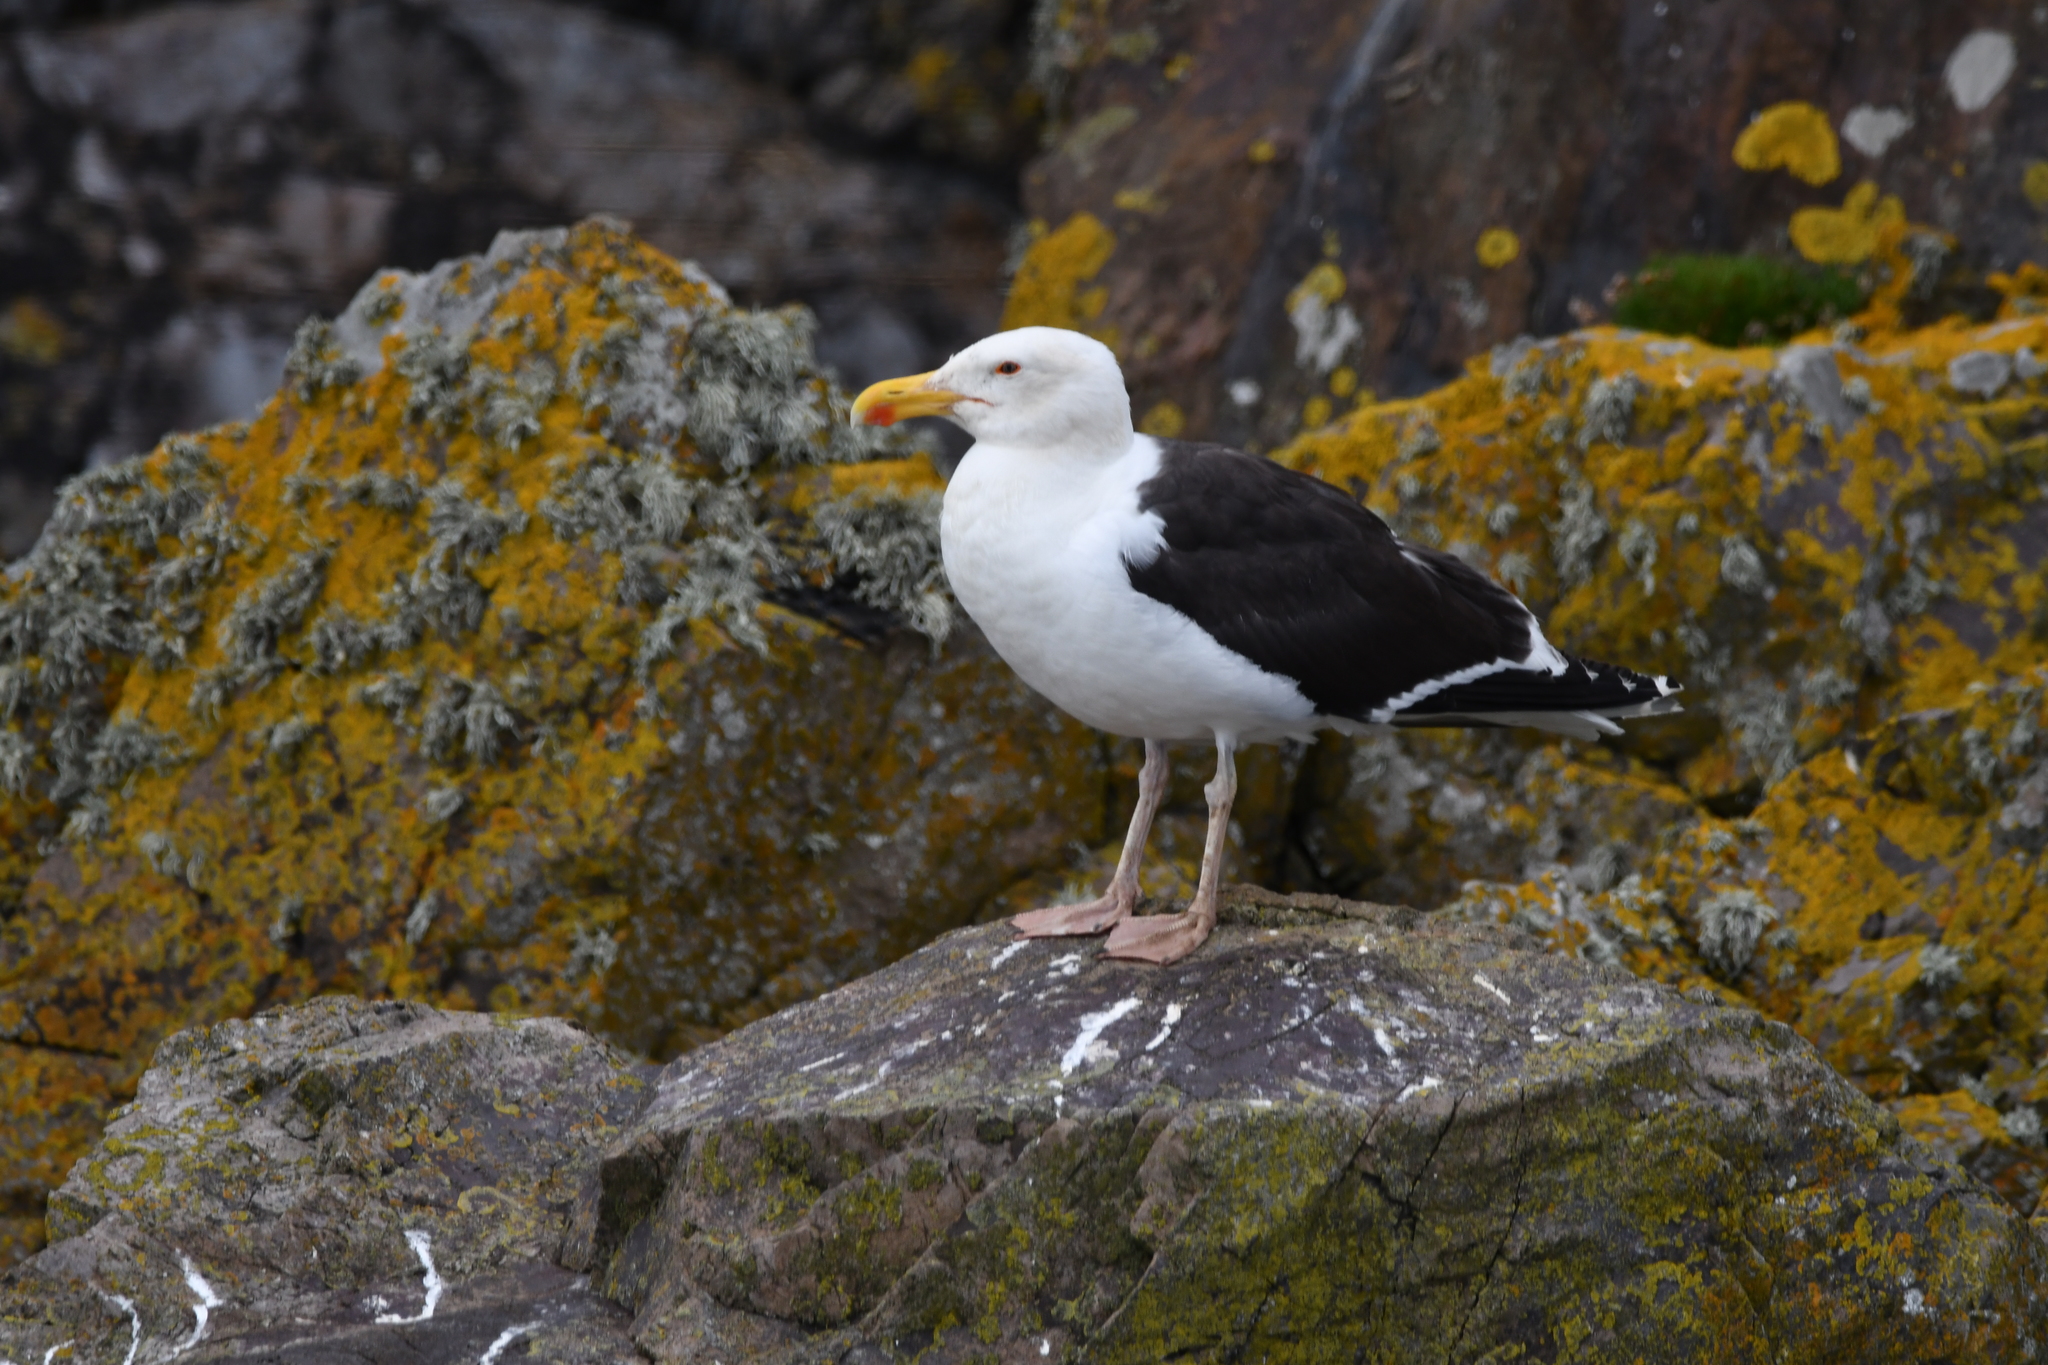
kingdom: Animalia
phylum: Chordata
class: Aves
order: Charadriiformes
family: Laridae
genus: Larus
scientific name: Larus marinus
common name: Great black-backed gull
